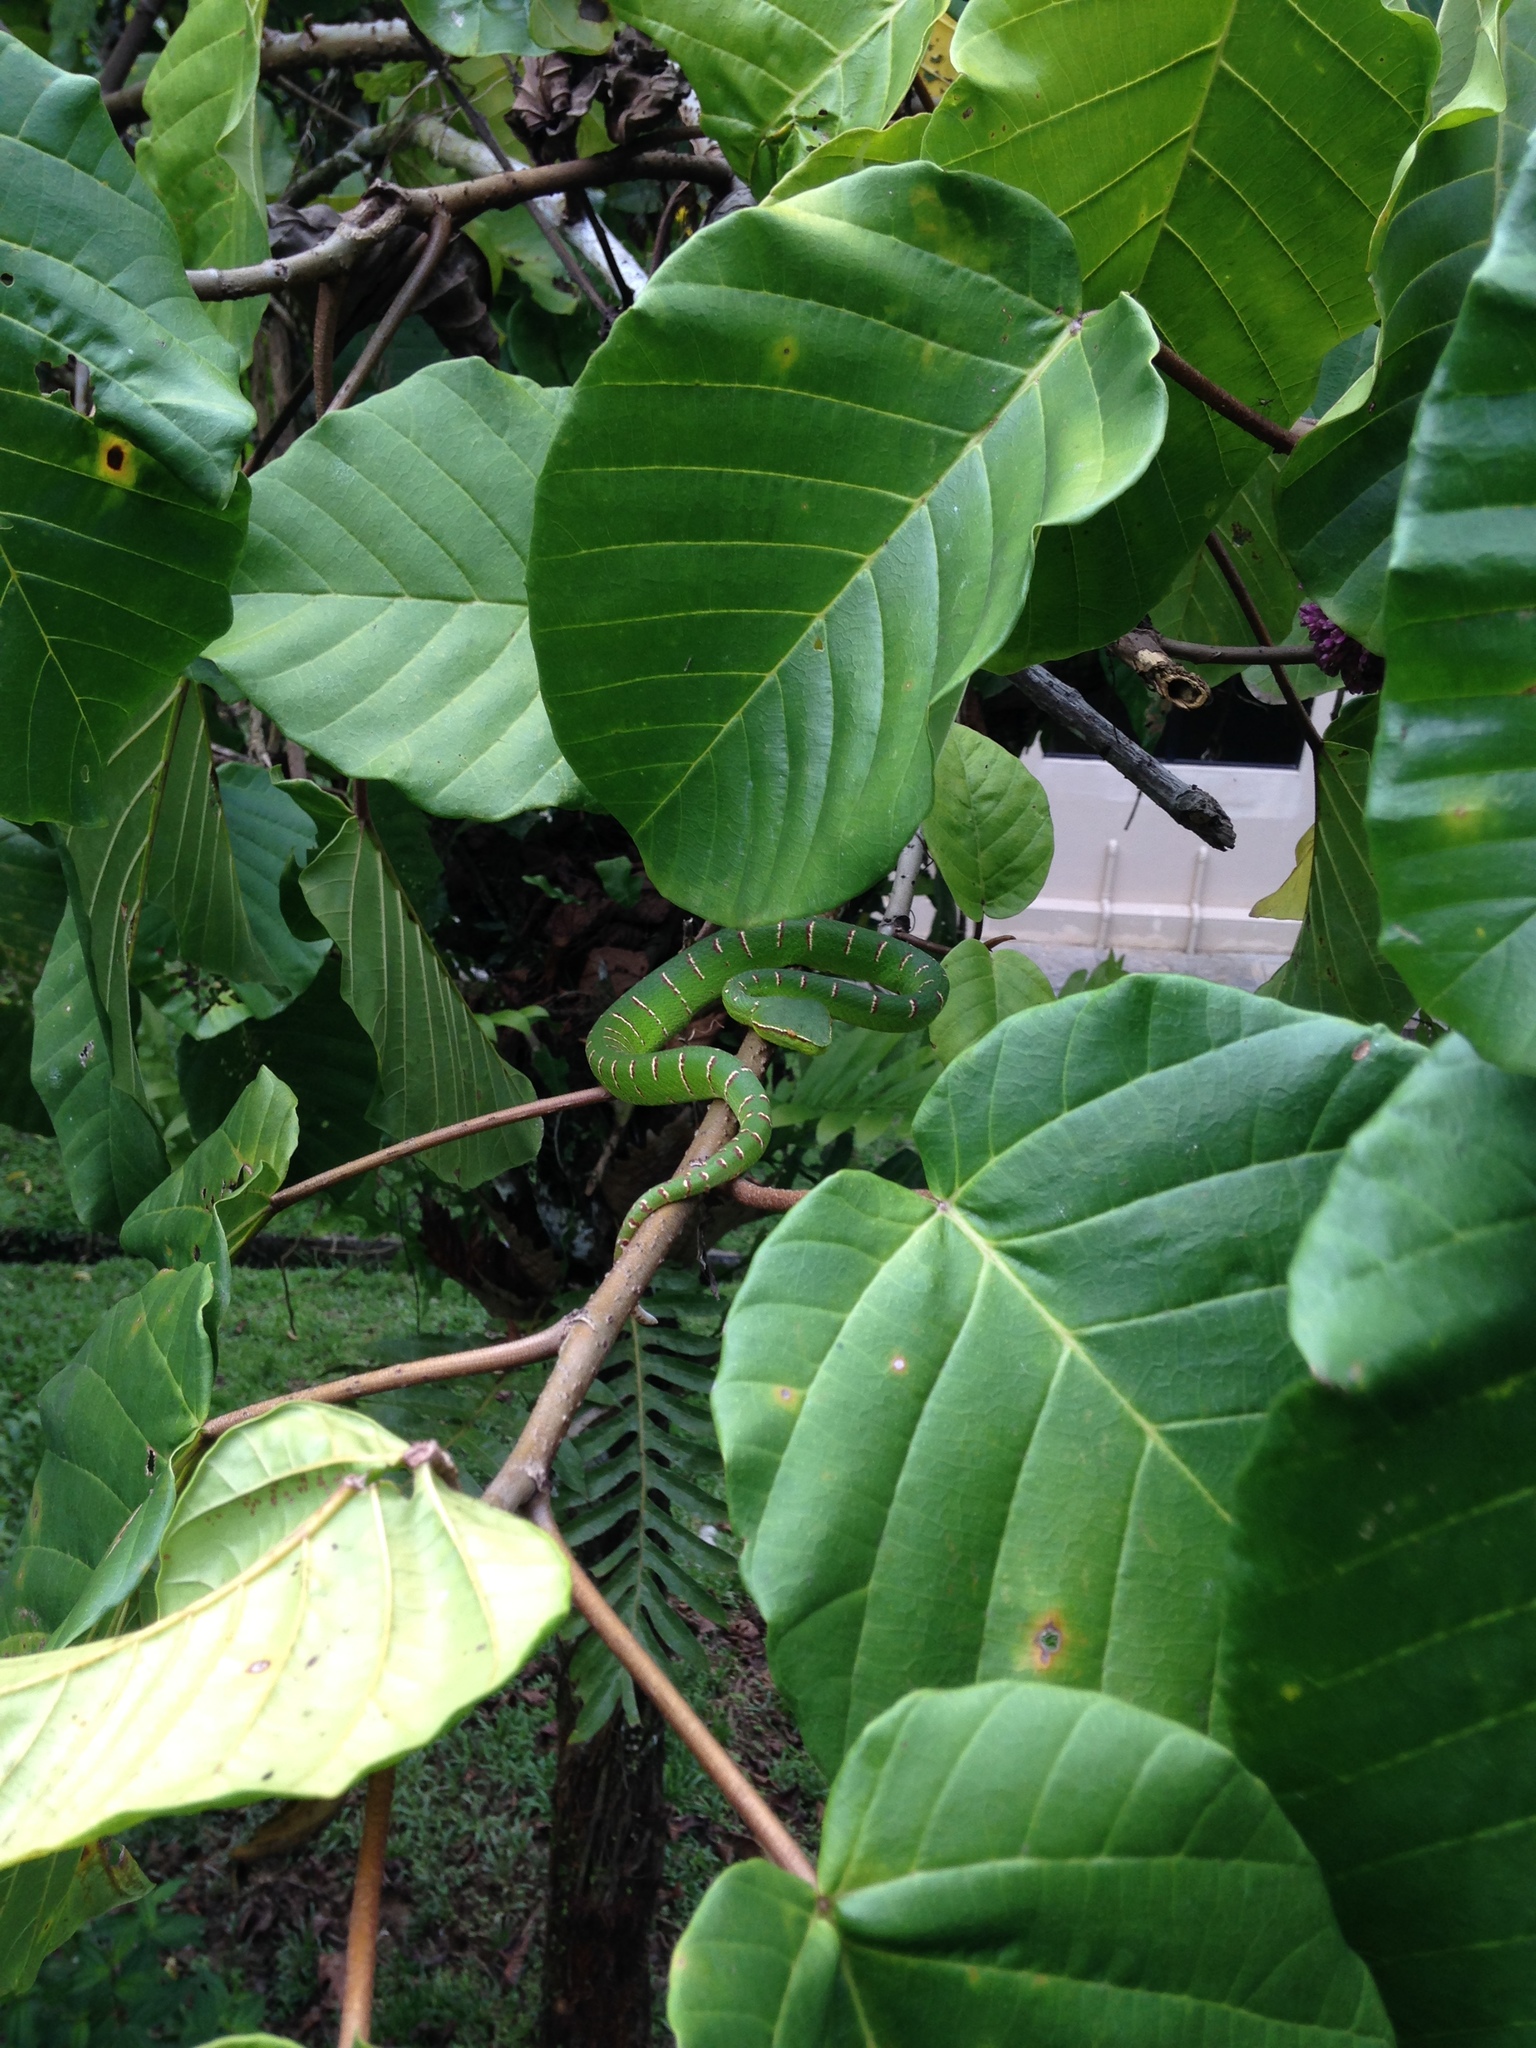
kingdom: Animalia
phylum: Chordata
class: Squamata
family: Viperidae
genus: Tropidolaemus
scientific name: Tropidolaemus subannulatus
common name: North philippine temple pitviper
